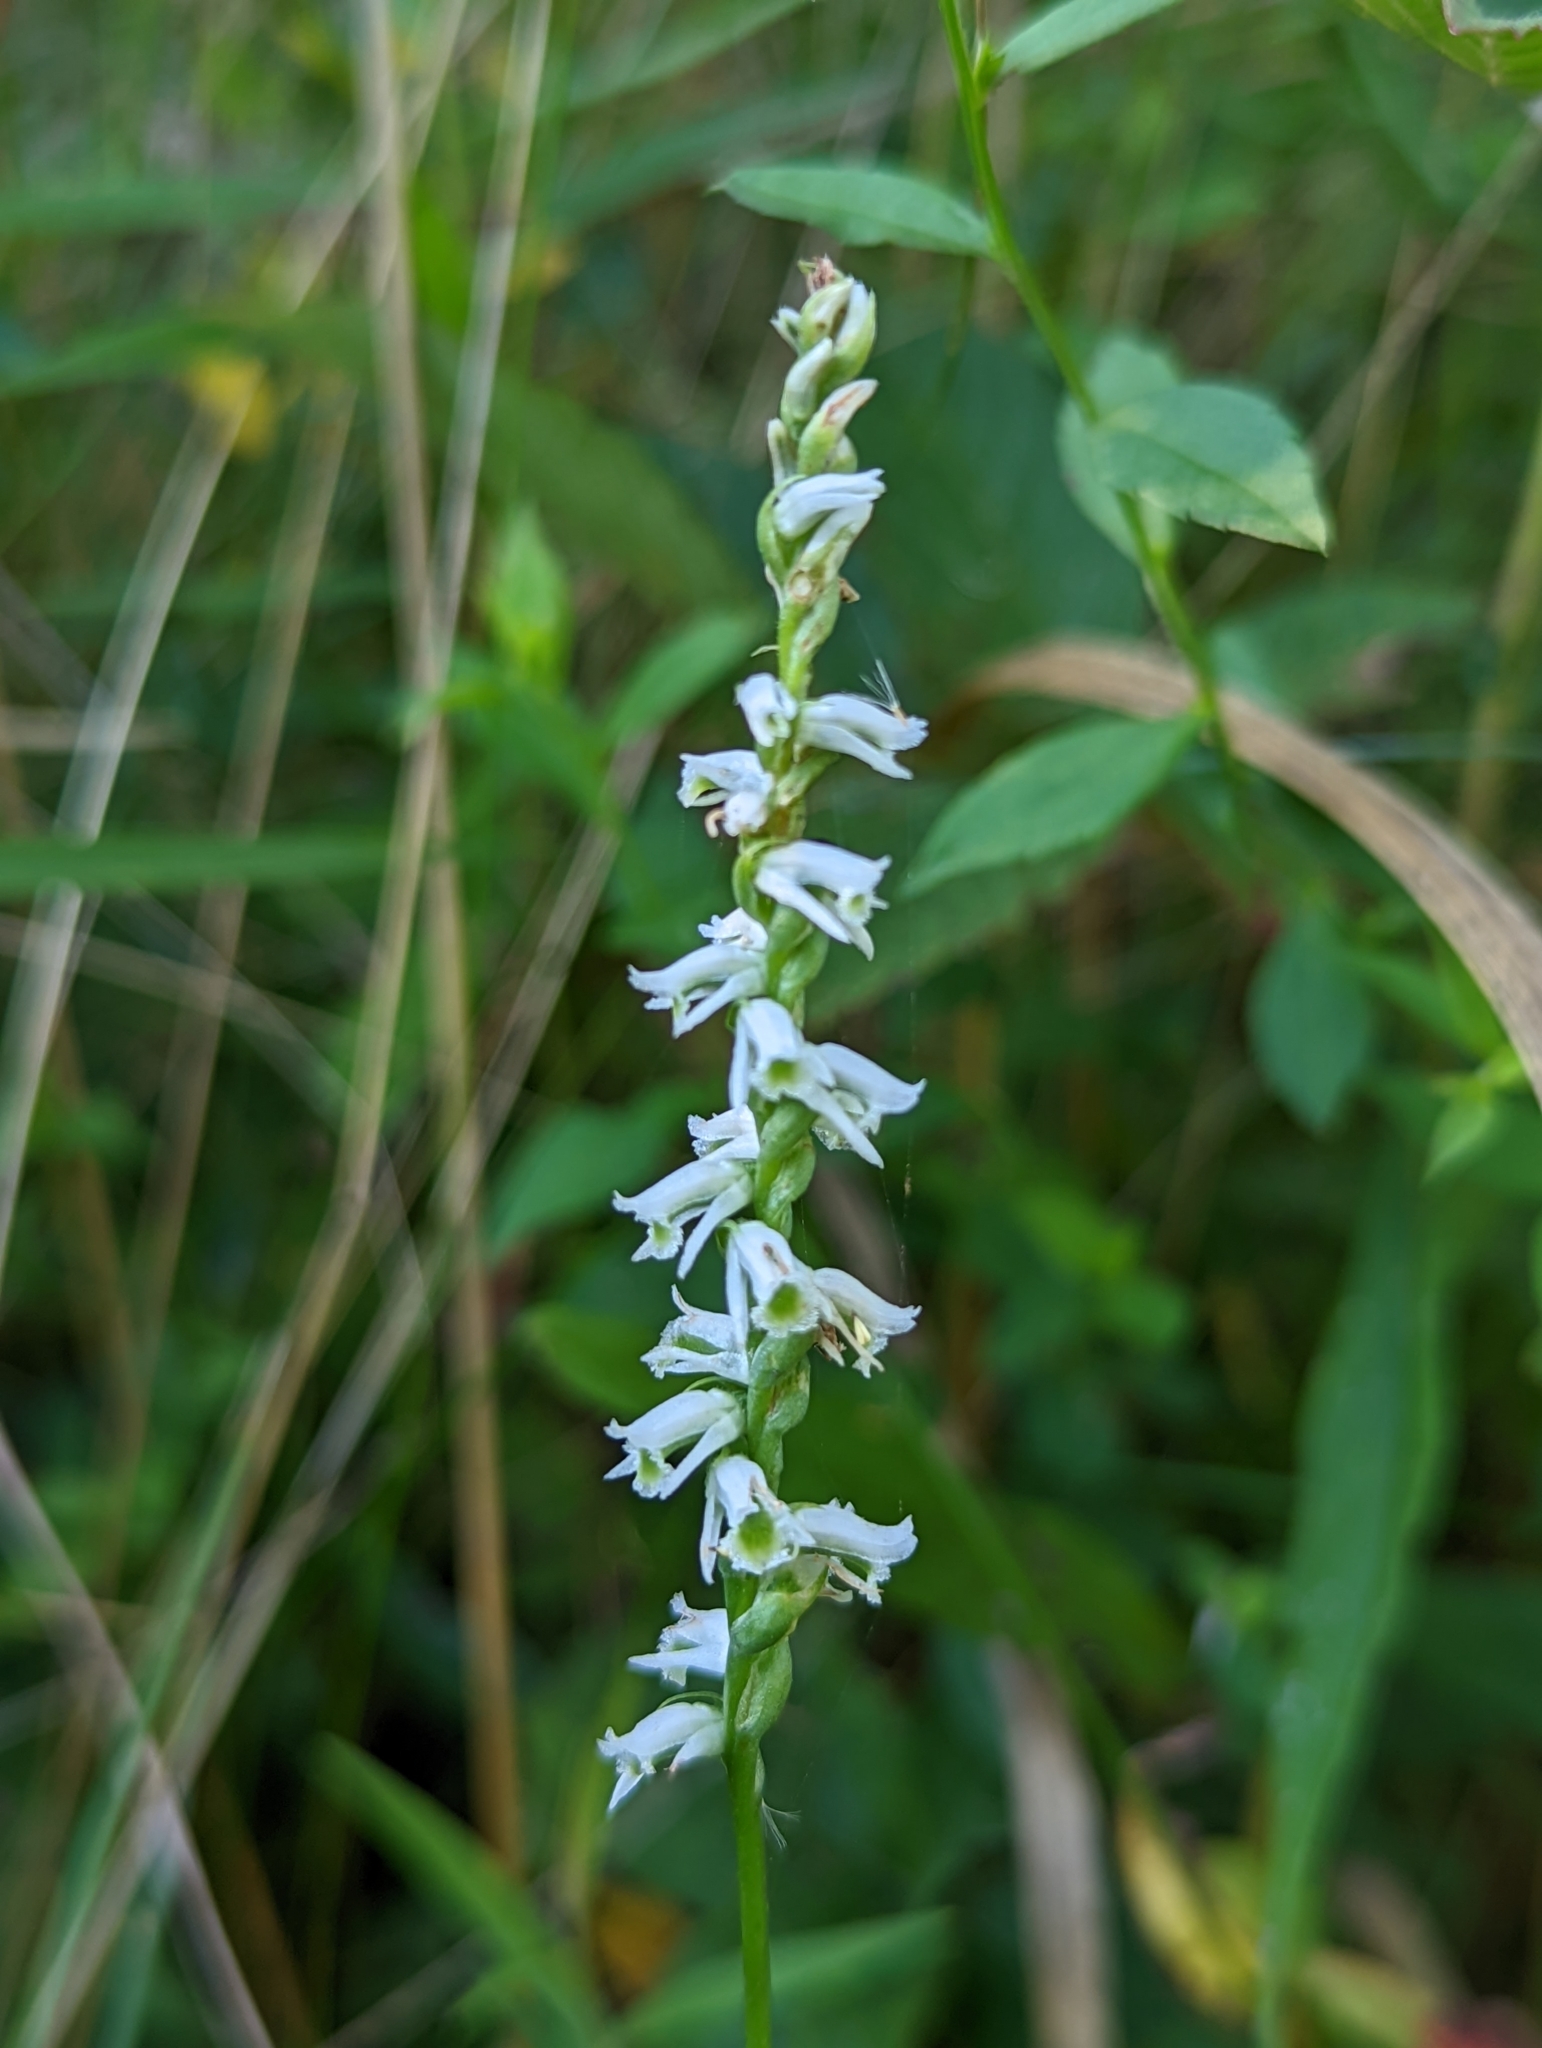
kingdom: Plantae
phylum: Tracheophyta
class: Liliopsida
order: Asparagales
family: Orchidaceae
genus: Spiranthes
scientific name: Spiranthes lacera
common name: Northern slender ladies'-tresses
